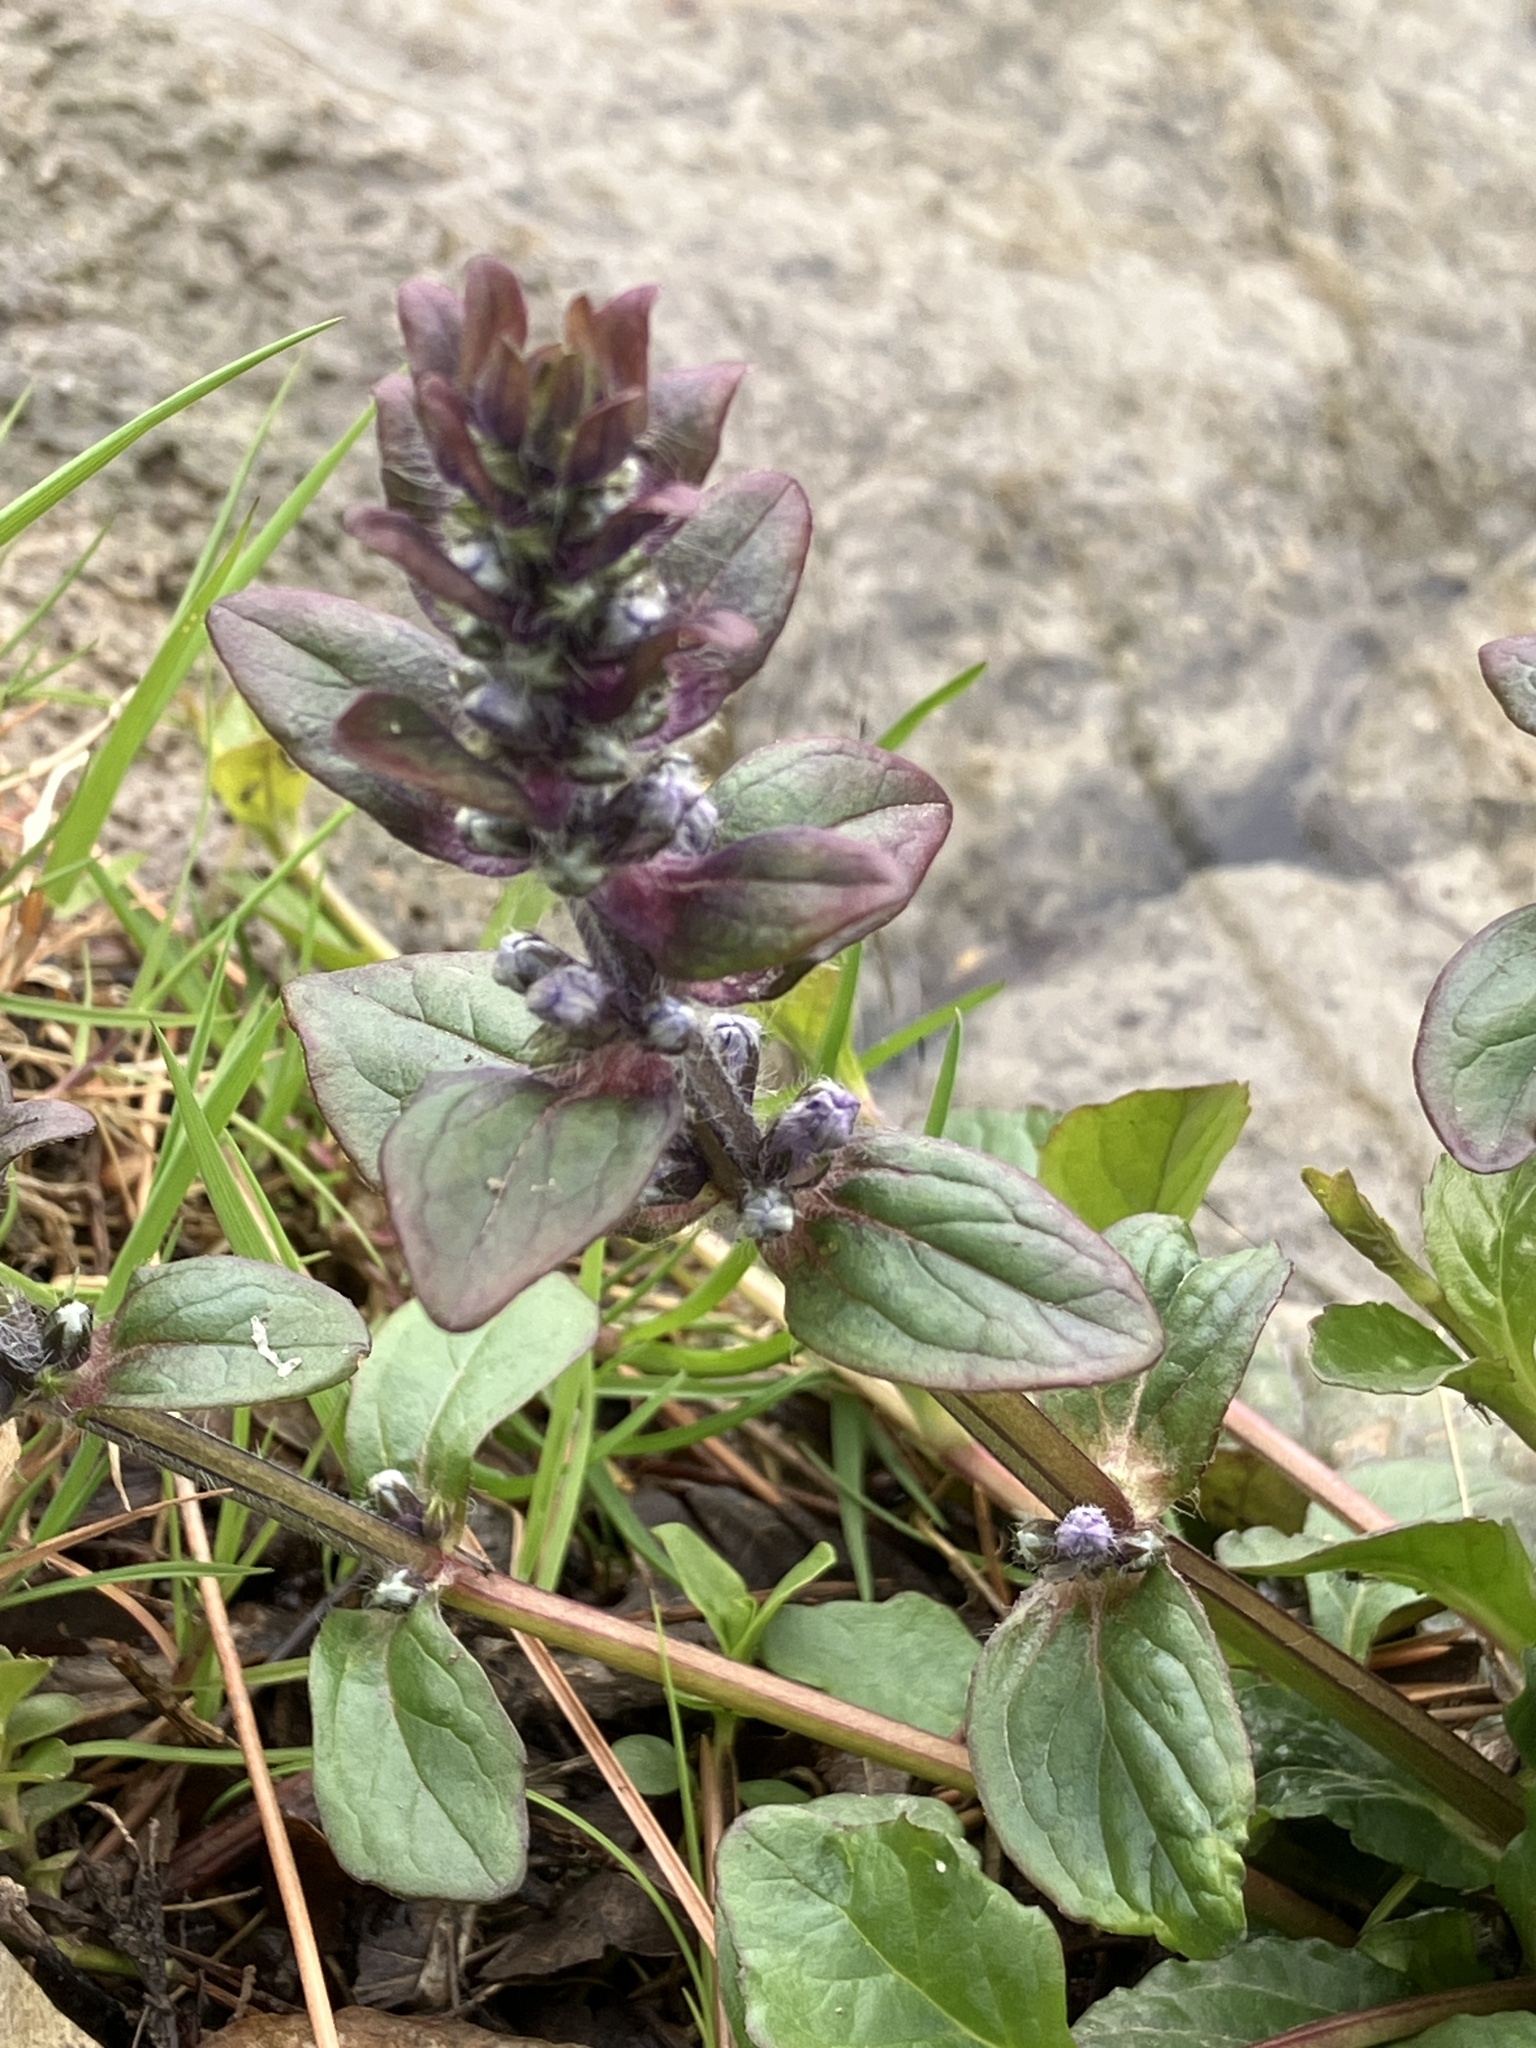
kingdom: Plantae
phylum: Tracheophyta
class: Magnoliopsida
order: Lamiales
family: Lamiaceae
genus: Ajuga
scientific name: Ajuga reptans
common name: Bugle
